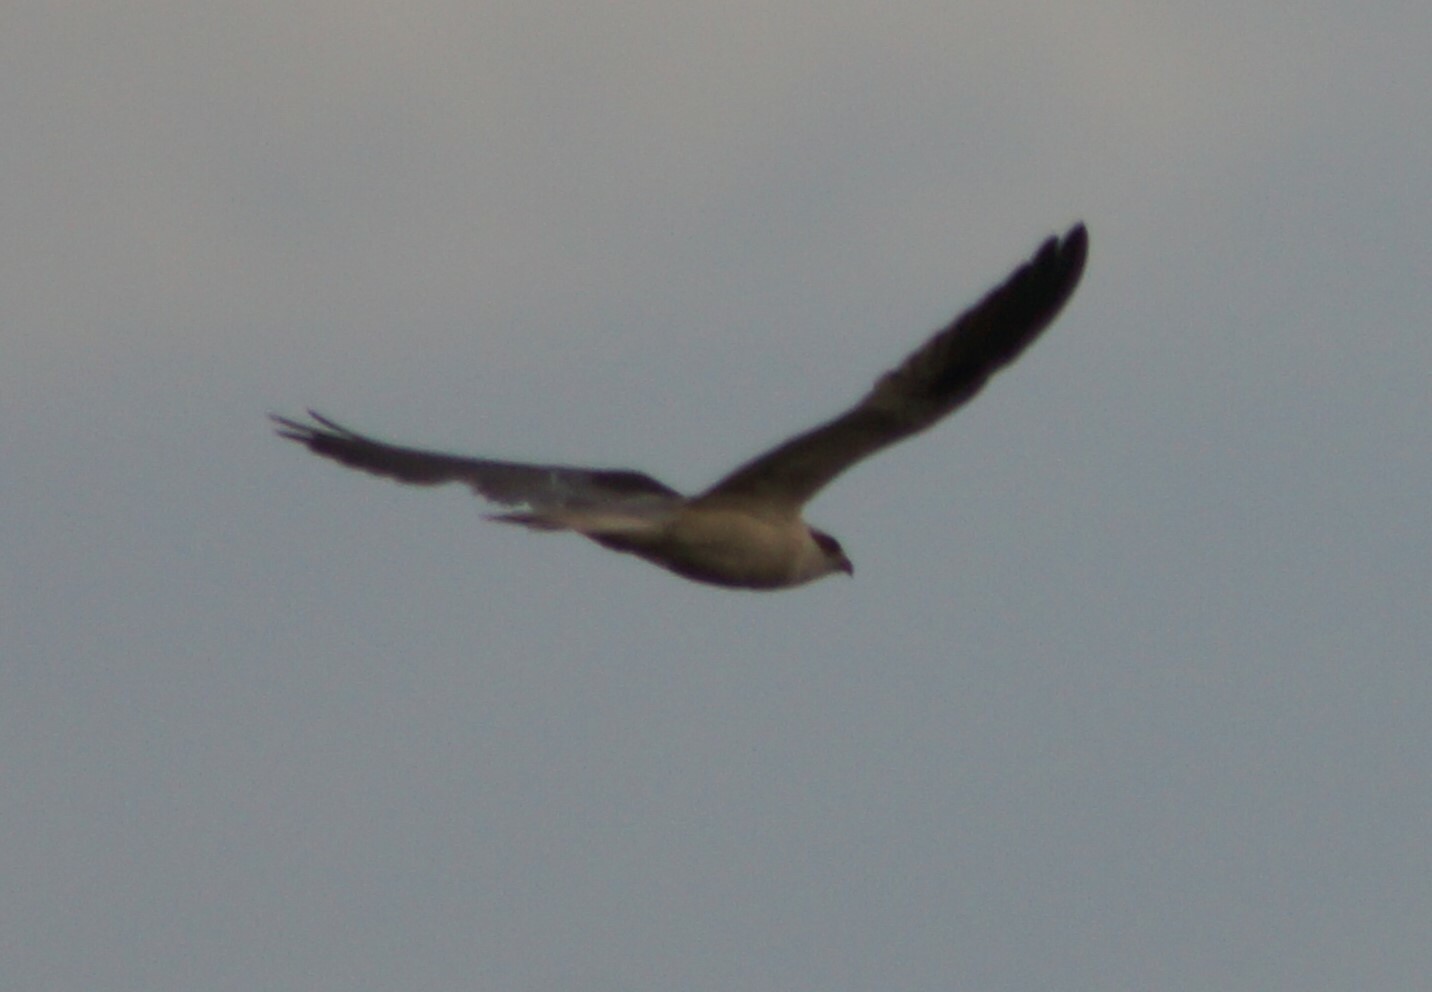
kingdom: Animalia
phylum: Chordata
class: Aves
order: Accipitriformes
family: Accipitridae
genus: Elanus
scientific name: Elanus axillaris
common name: Black-shouldered kite
